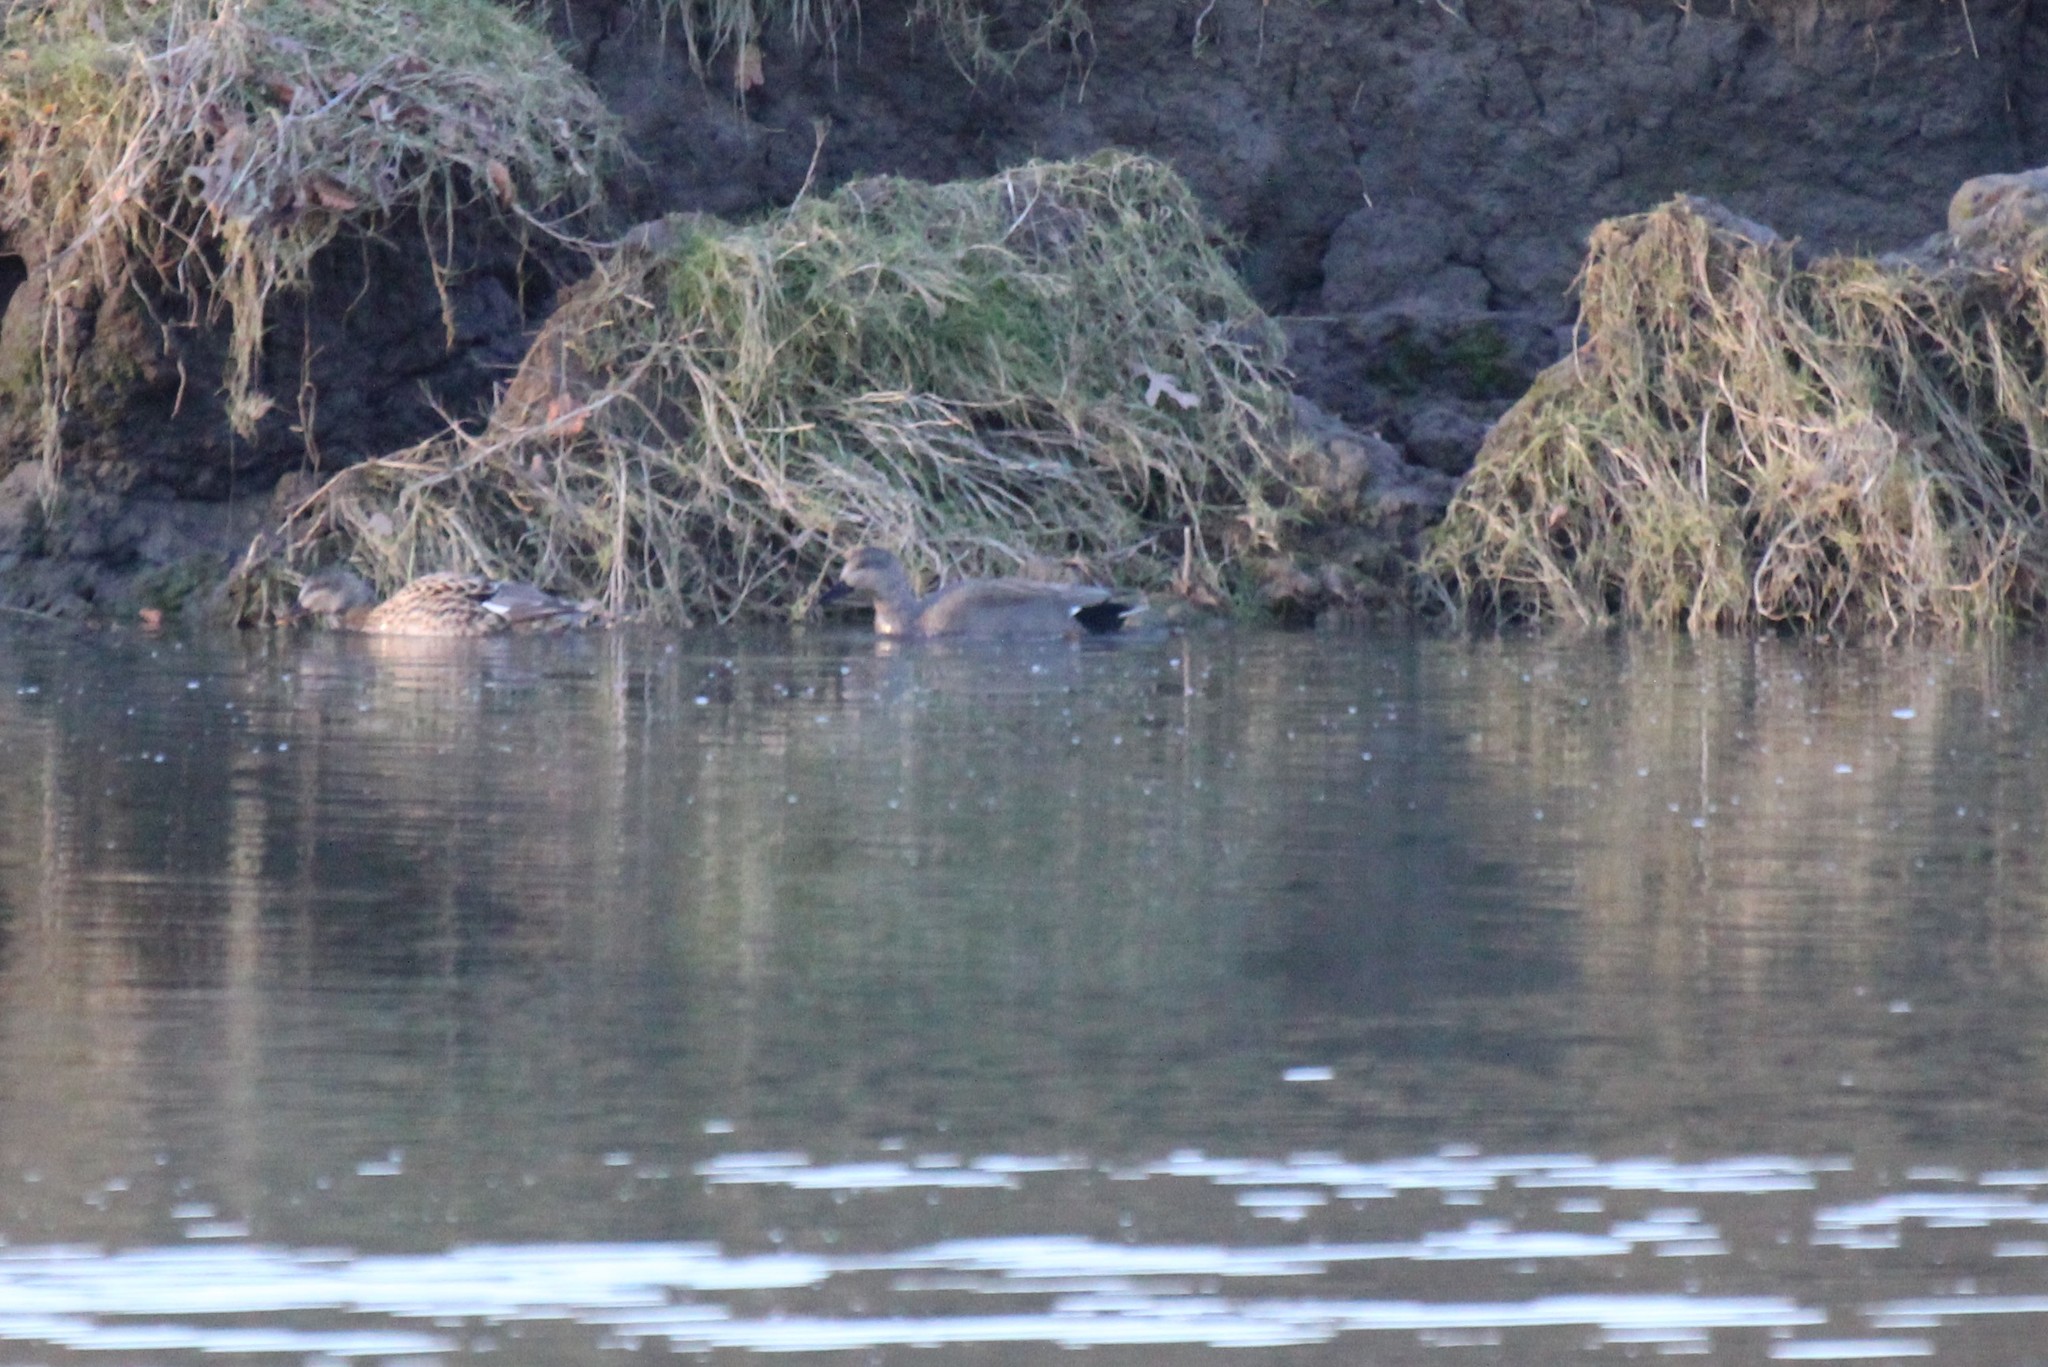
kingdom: Animalia
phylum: Chordata
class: Aves
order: Anseriformes
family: Anatidae
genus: Mareca
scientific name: Mareca strepera
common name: Gadwall
